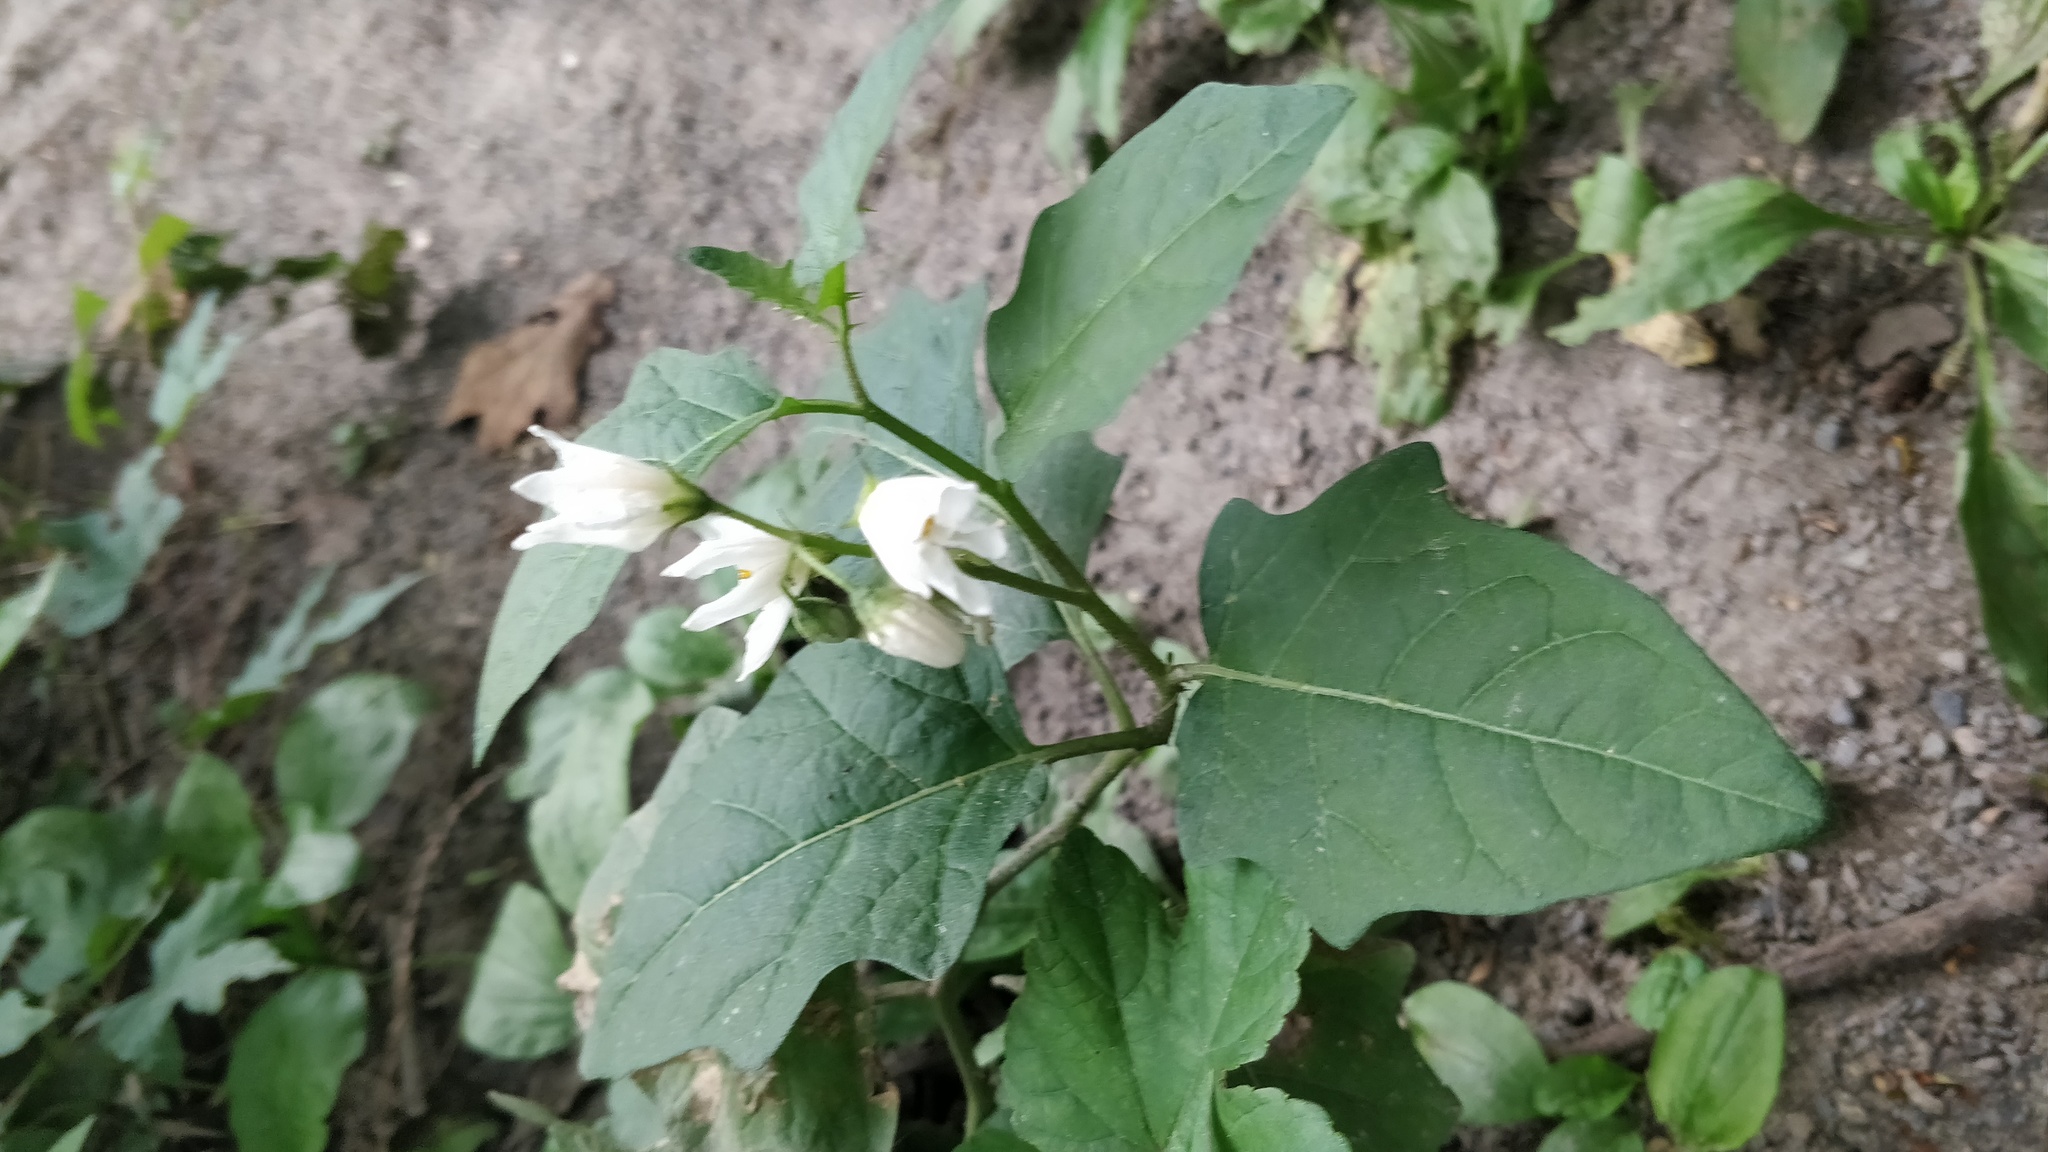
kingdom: Plantae
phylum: Tracheophyta
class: Magnoliopsida
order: Solanales
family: Solanaceae
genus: Solanum
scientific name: Solanum carolinense
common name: Horse-nettle
